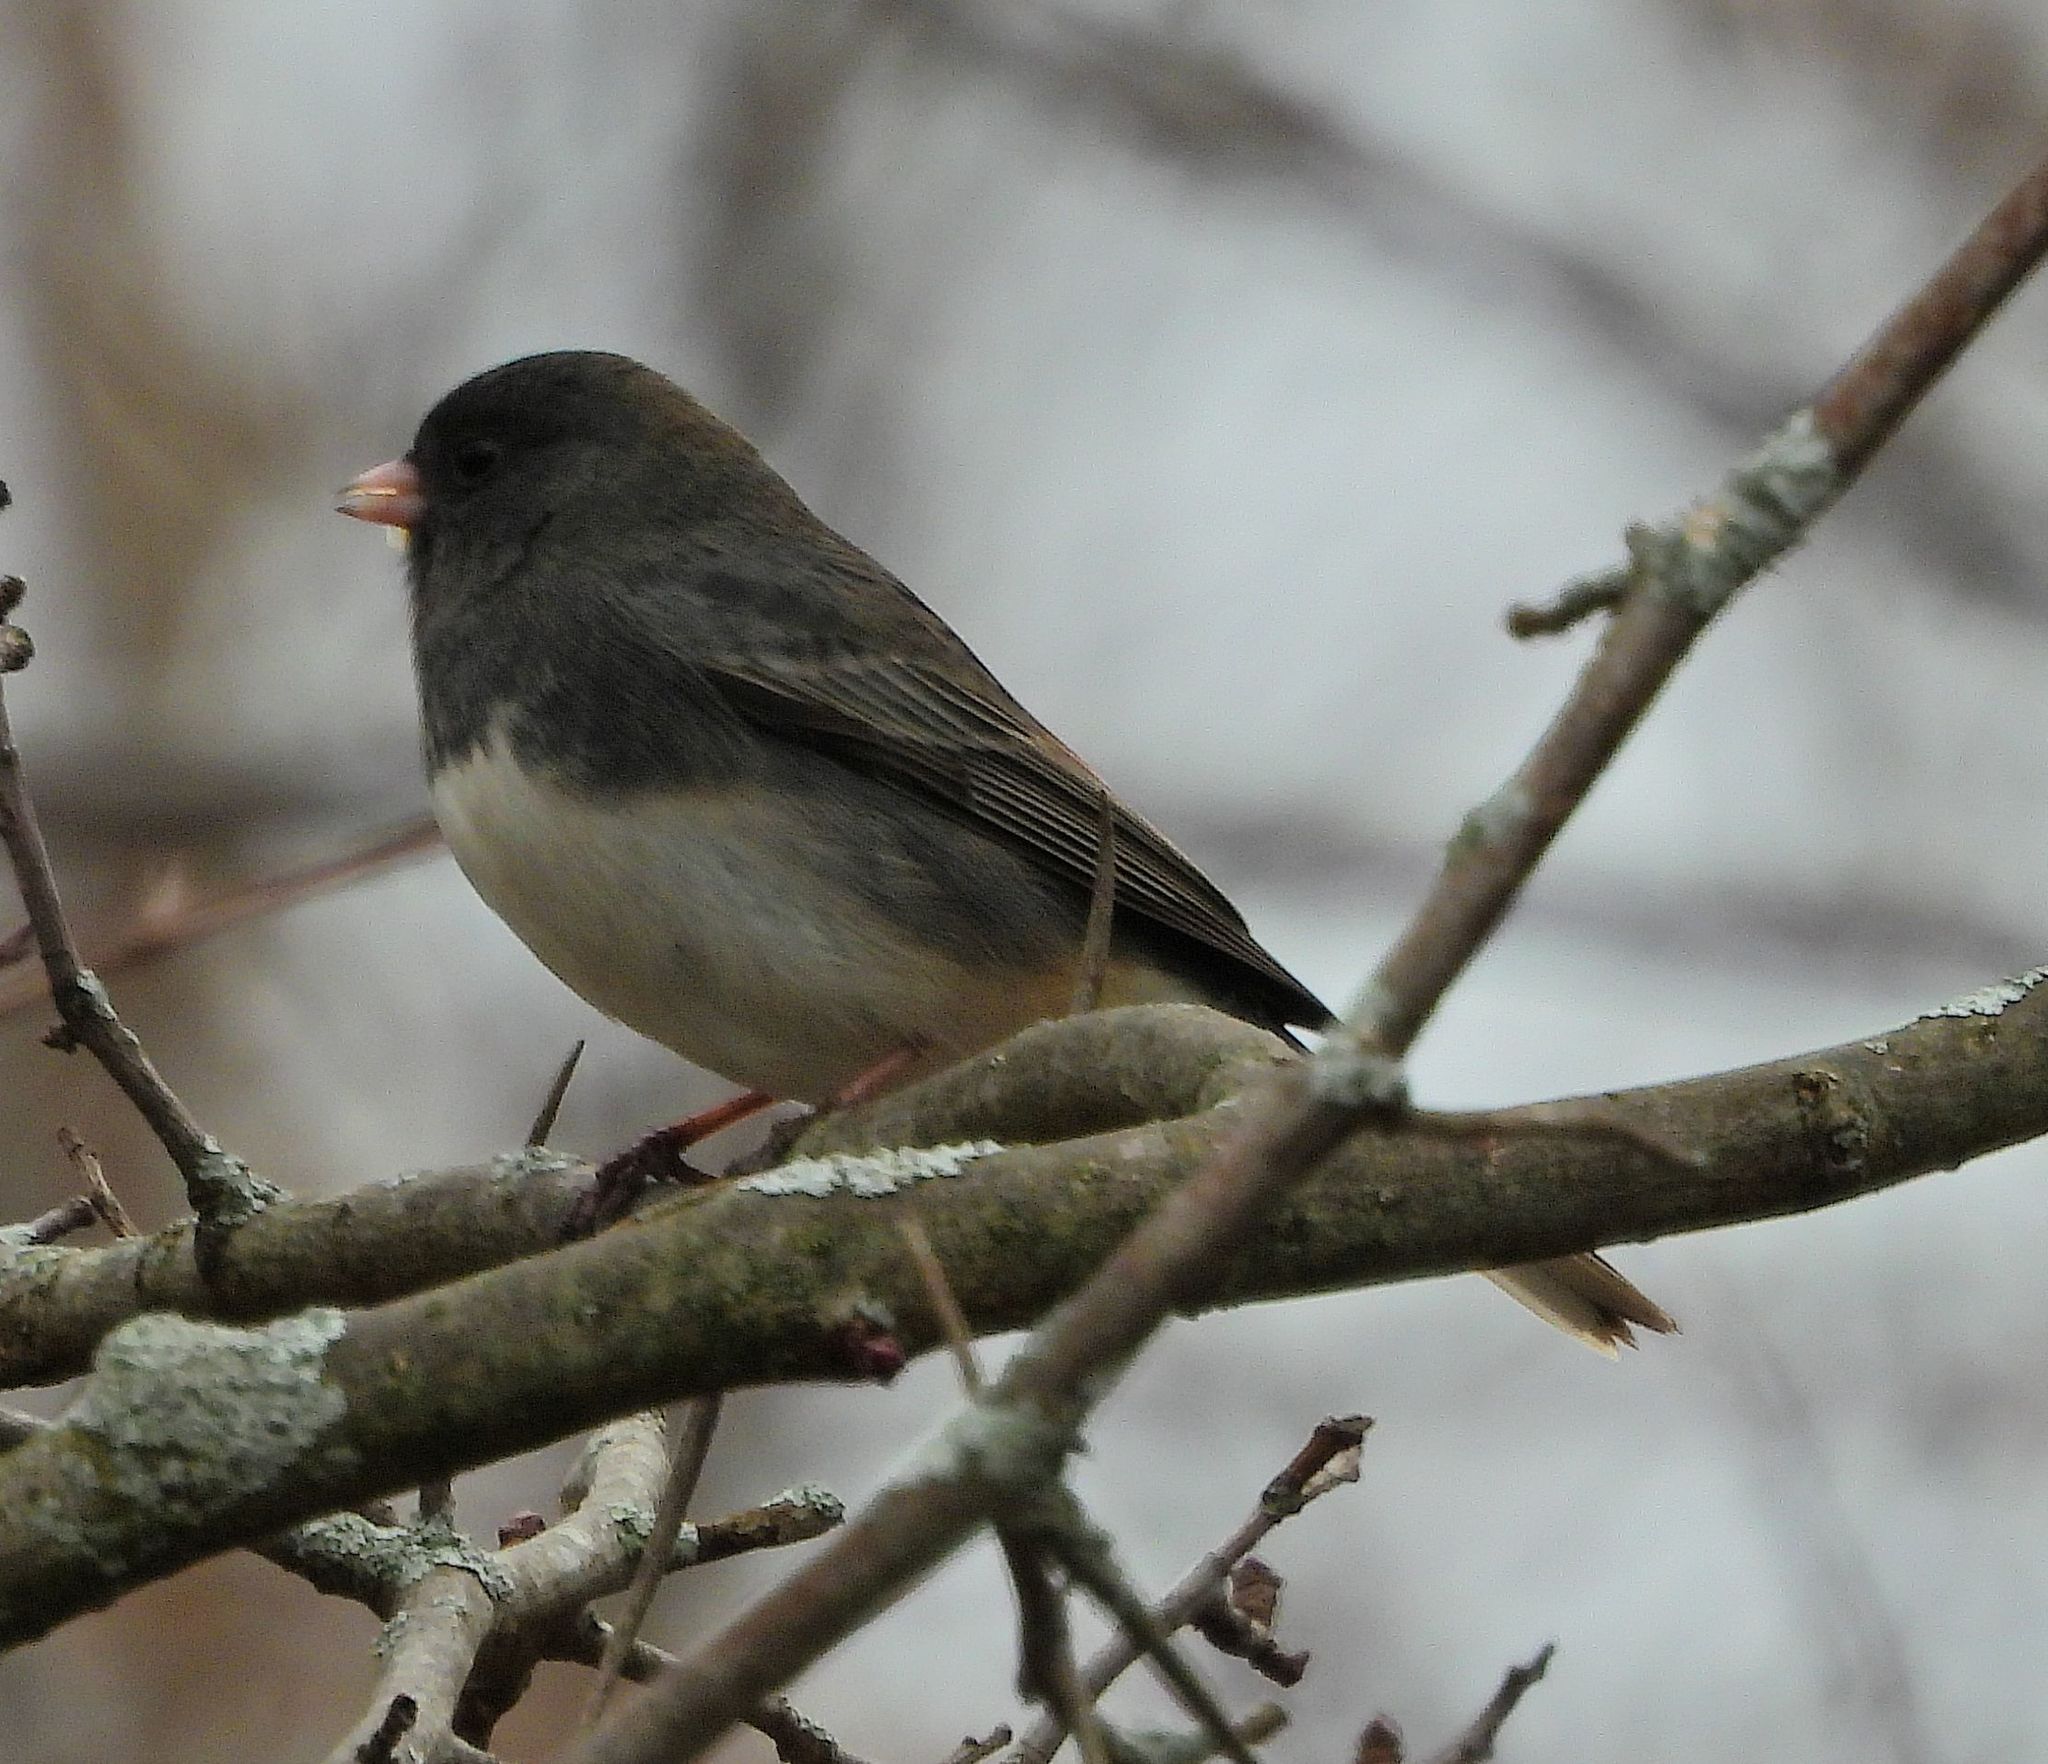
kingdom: Animalia
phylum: Chordata
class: Aves
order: Passeriformes
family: Passerellidae
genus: Junco
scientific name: Junco hyemalis
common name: Dark-eyed junco
